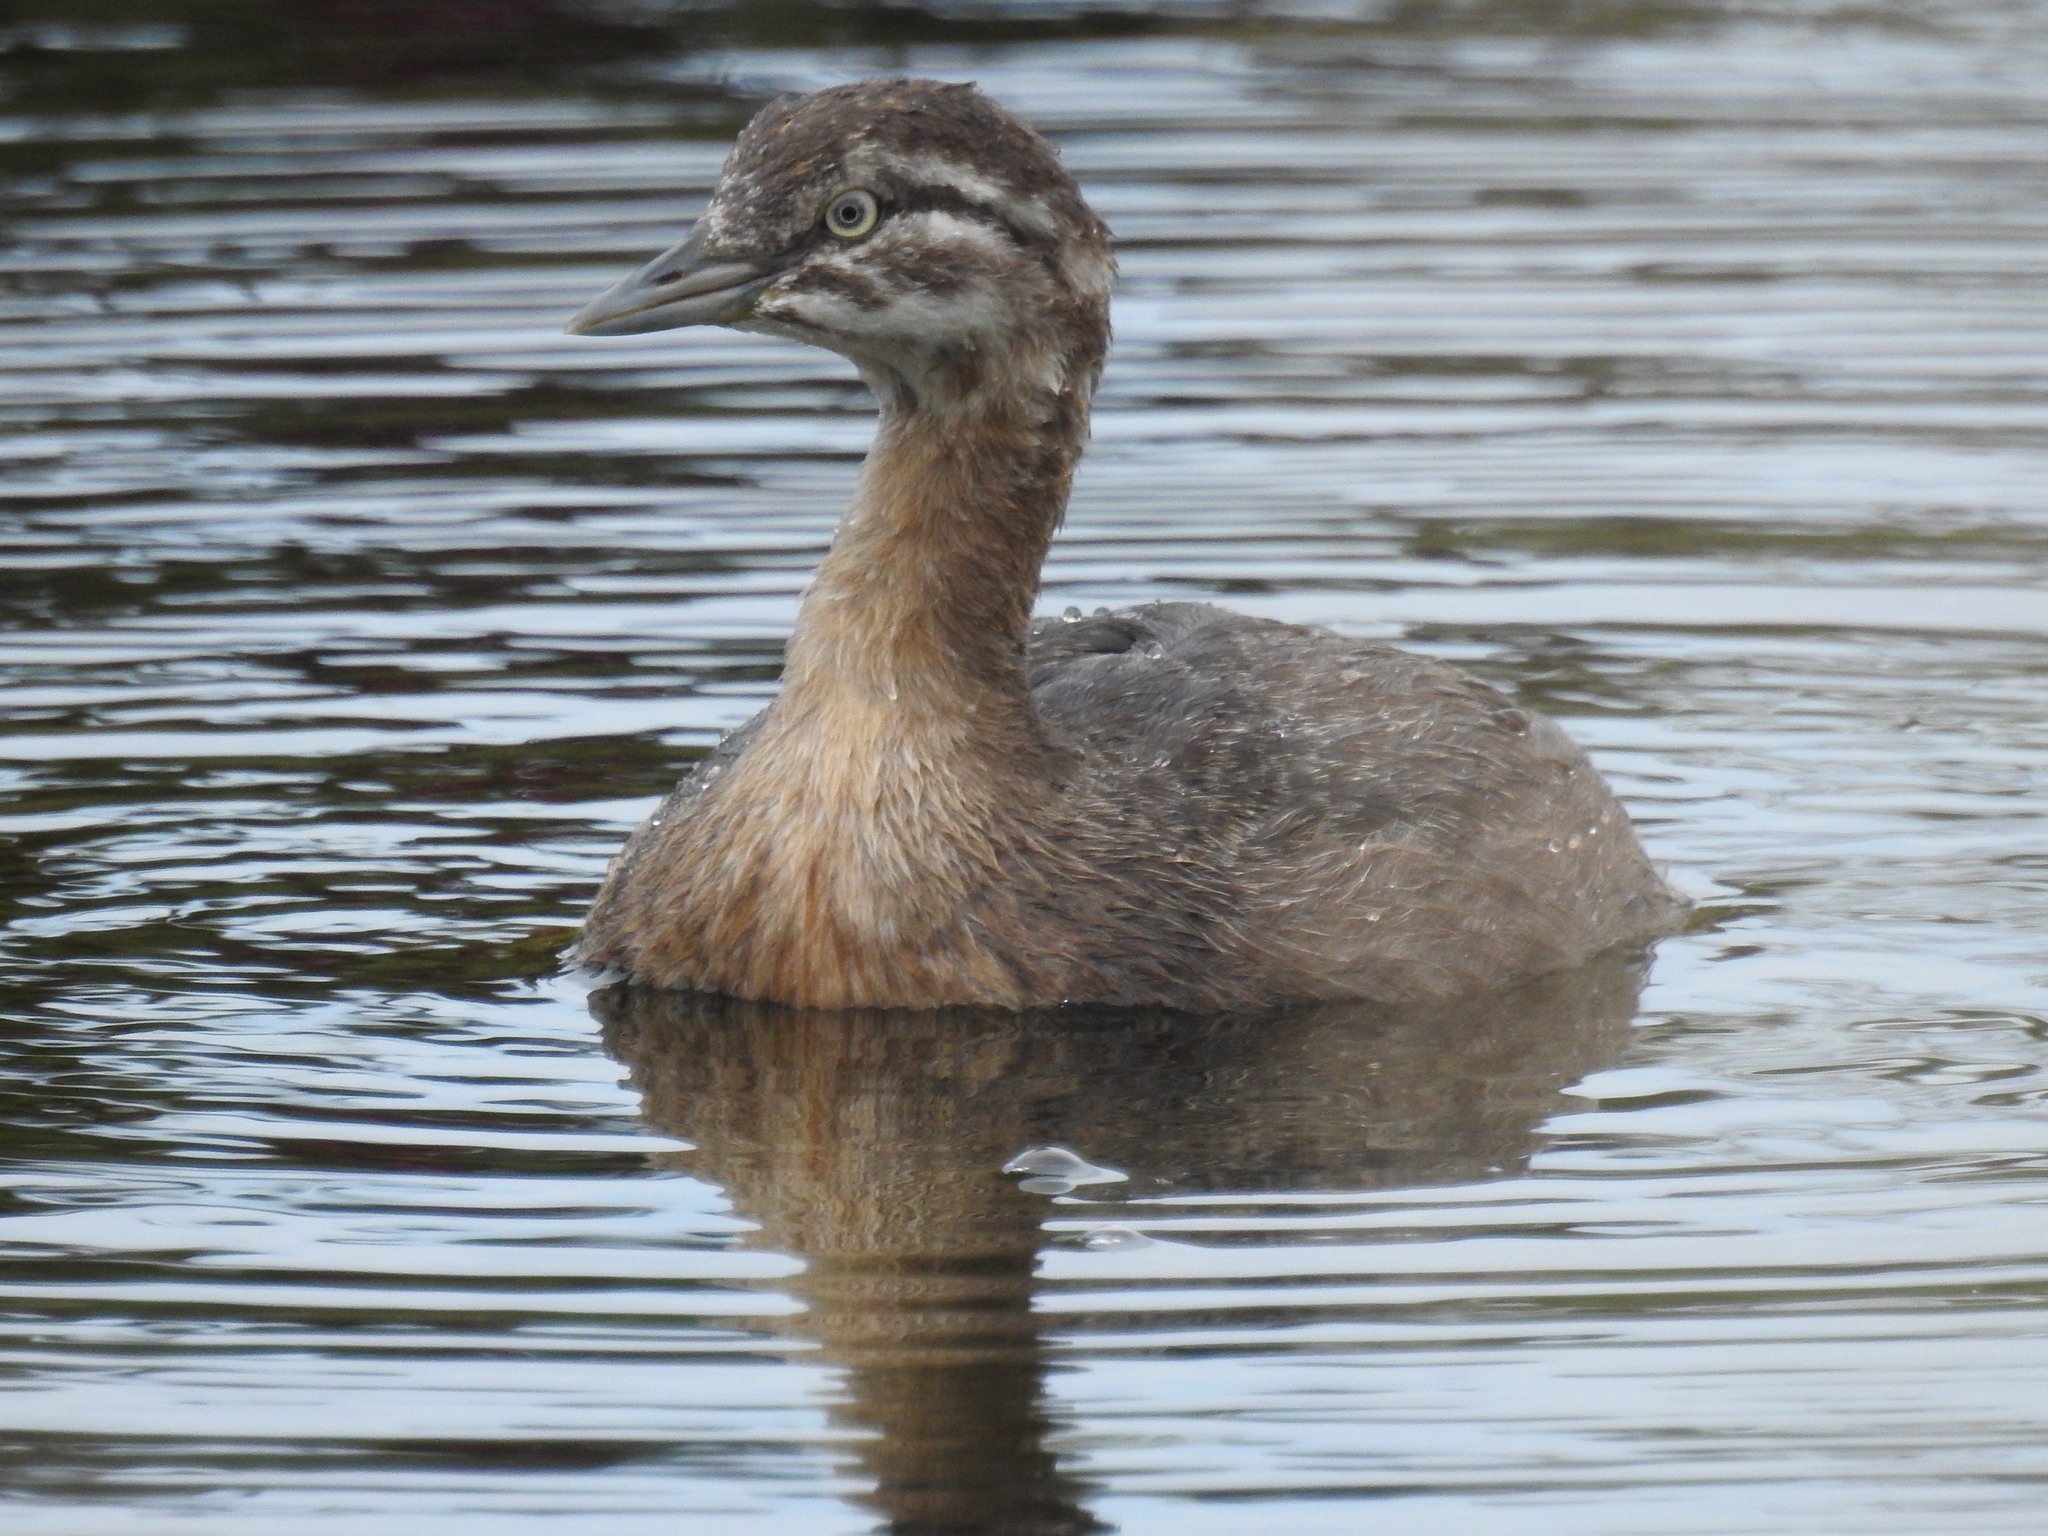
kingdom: Animalia
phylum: Chordata
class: Aves
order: Podicipediformes
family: Podicipedidae
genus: Poliocephalus
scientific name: Poliocephalus rufopectus
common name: New zealand grebe
